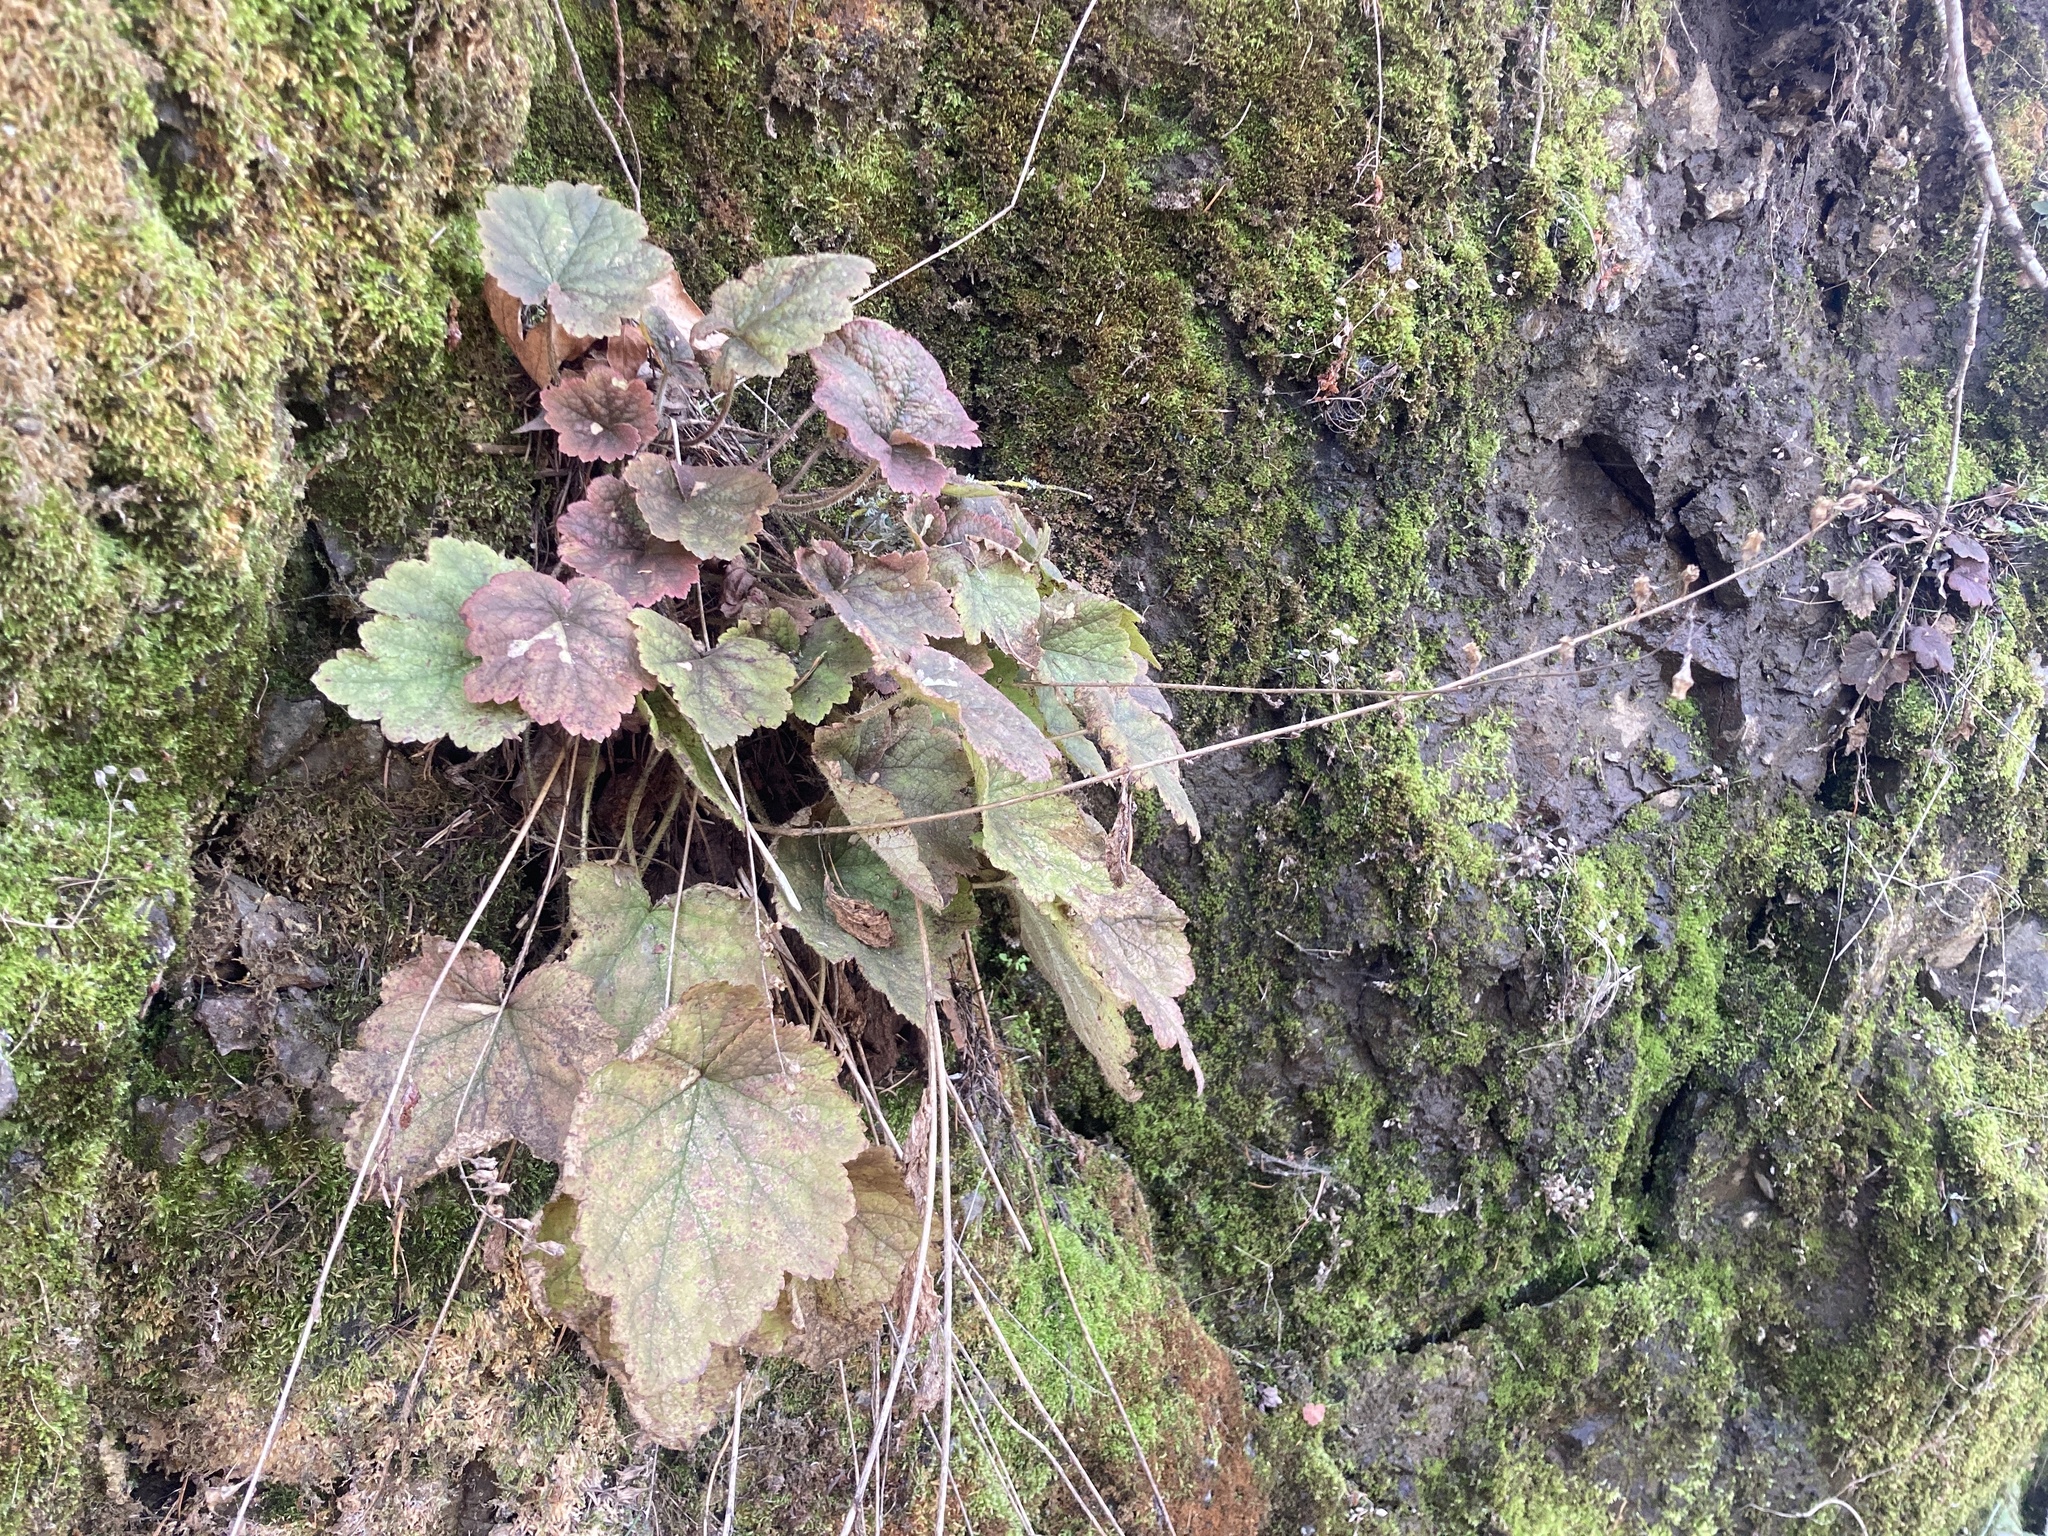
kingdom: Plantae
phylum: Tracheophyta
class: Magnoliopsida
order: Saxifragales
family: Saxifragaceae
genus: Tellima
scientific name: Tellima grandiflora
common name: Fringecups
